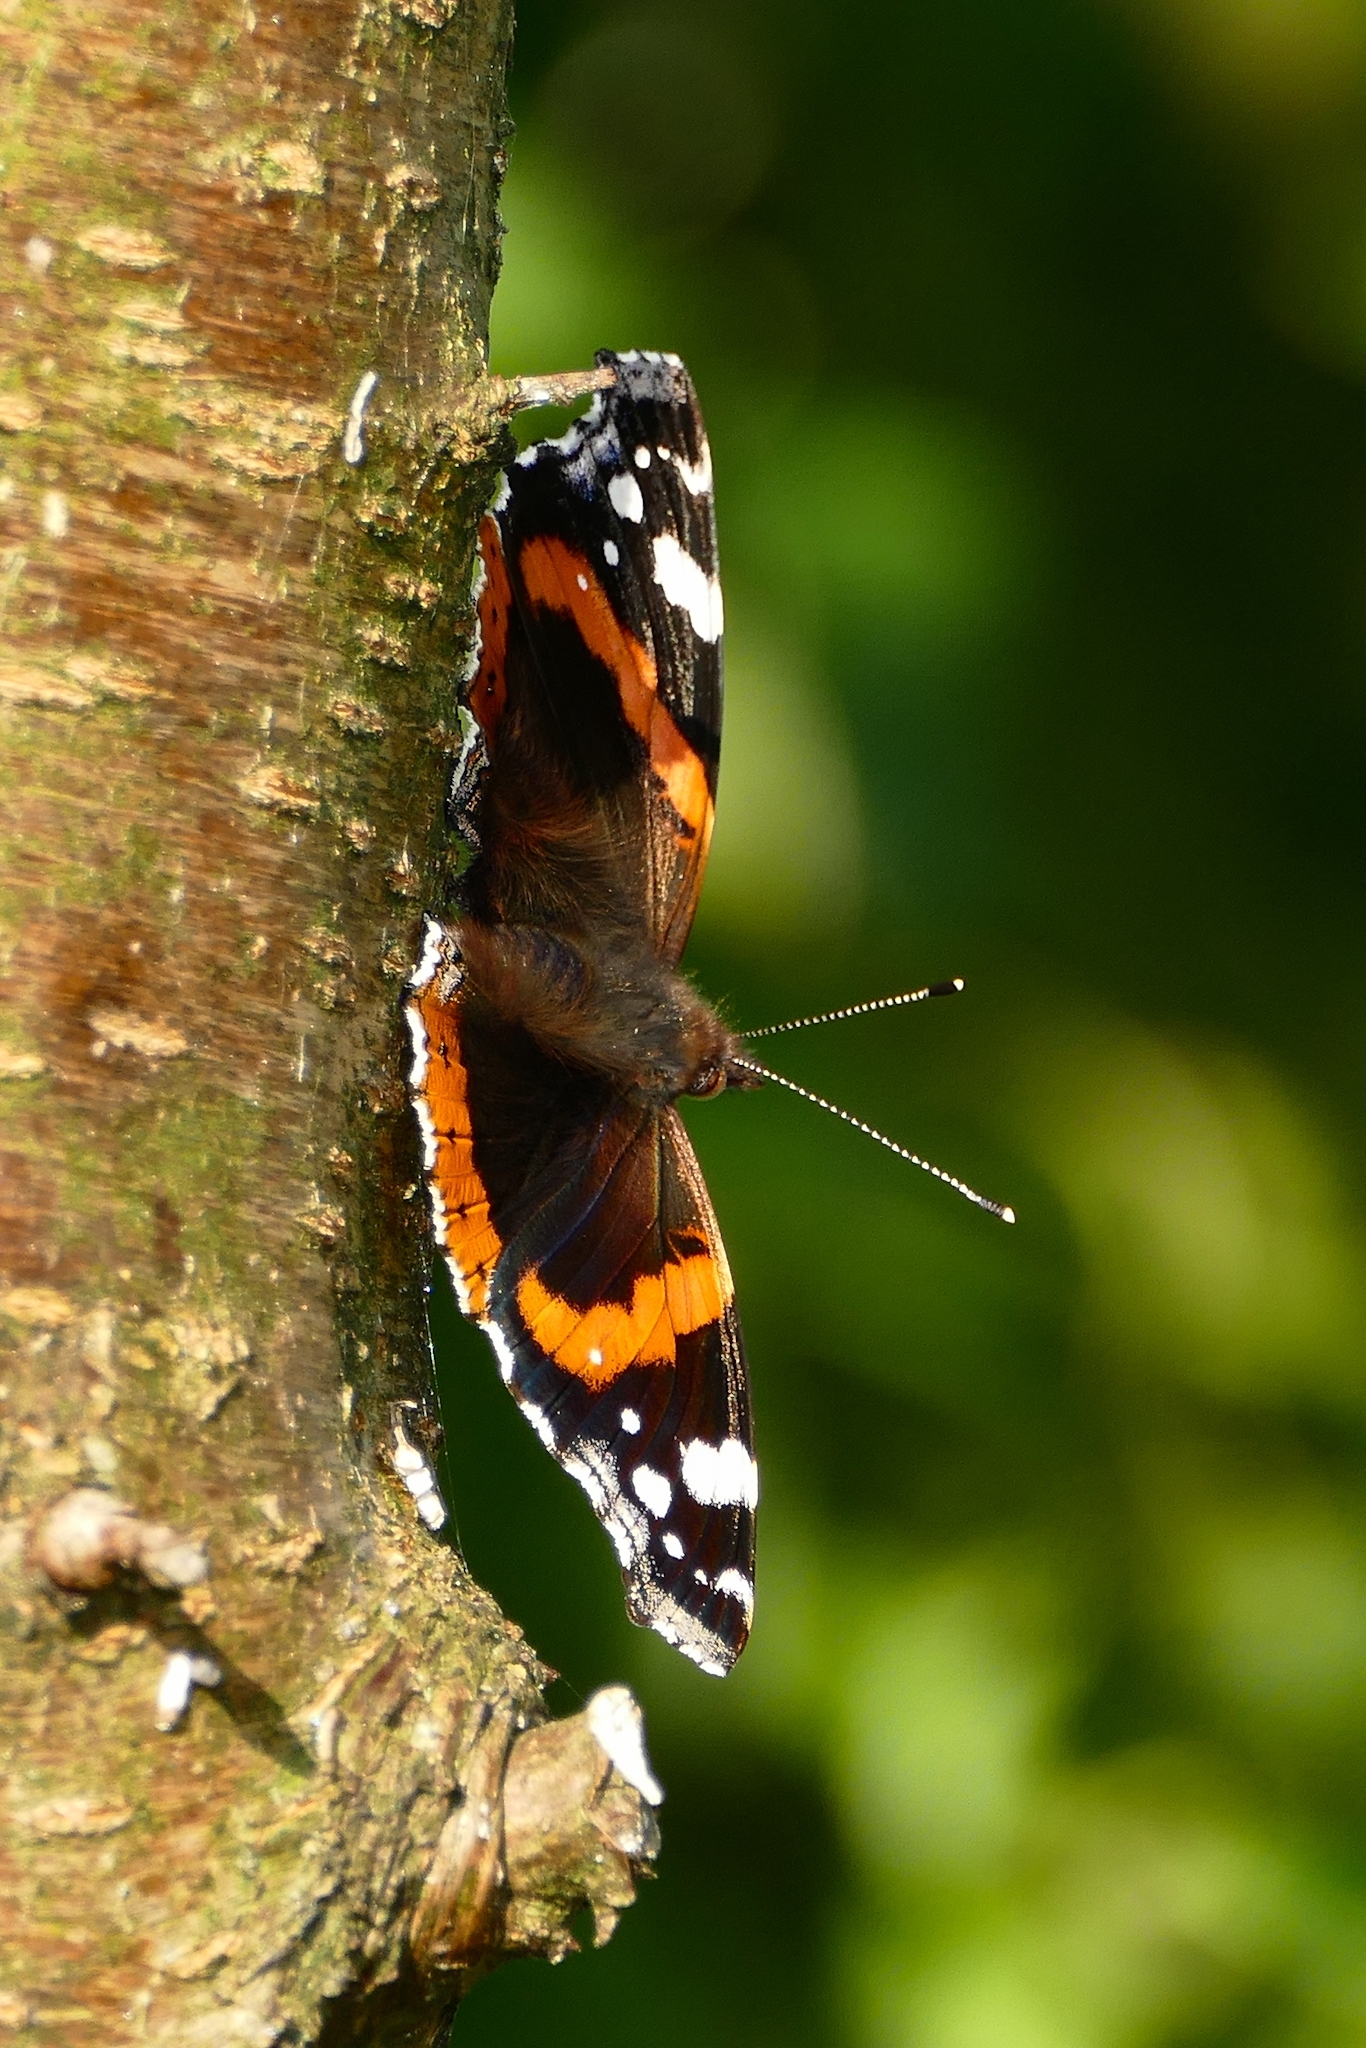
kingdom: Animalia
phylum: Arthropoda
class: Insecta
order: Lepidoptera
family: Nymphalidae
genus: Vanessa
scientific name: Vanessa atalanta
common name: Red admiral
